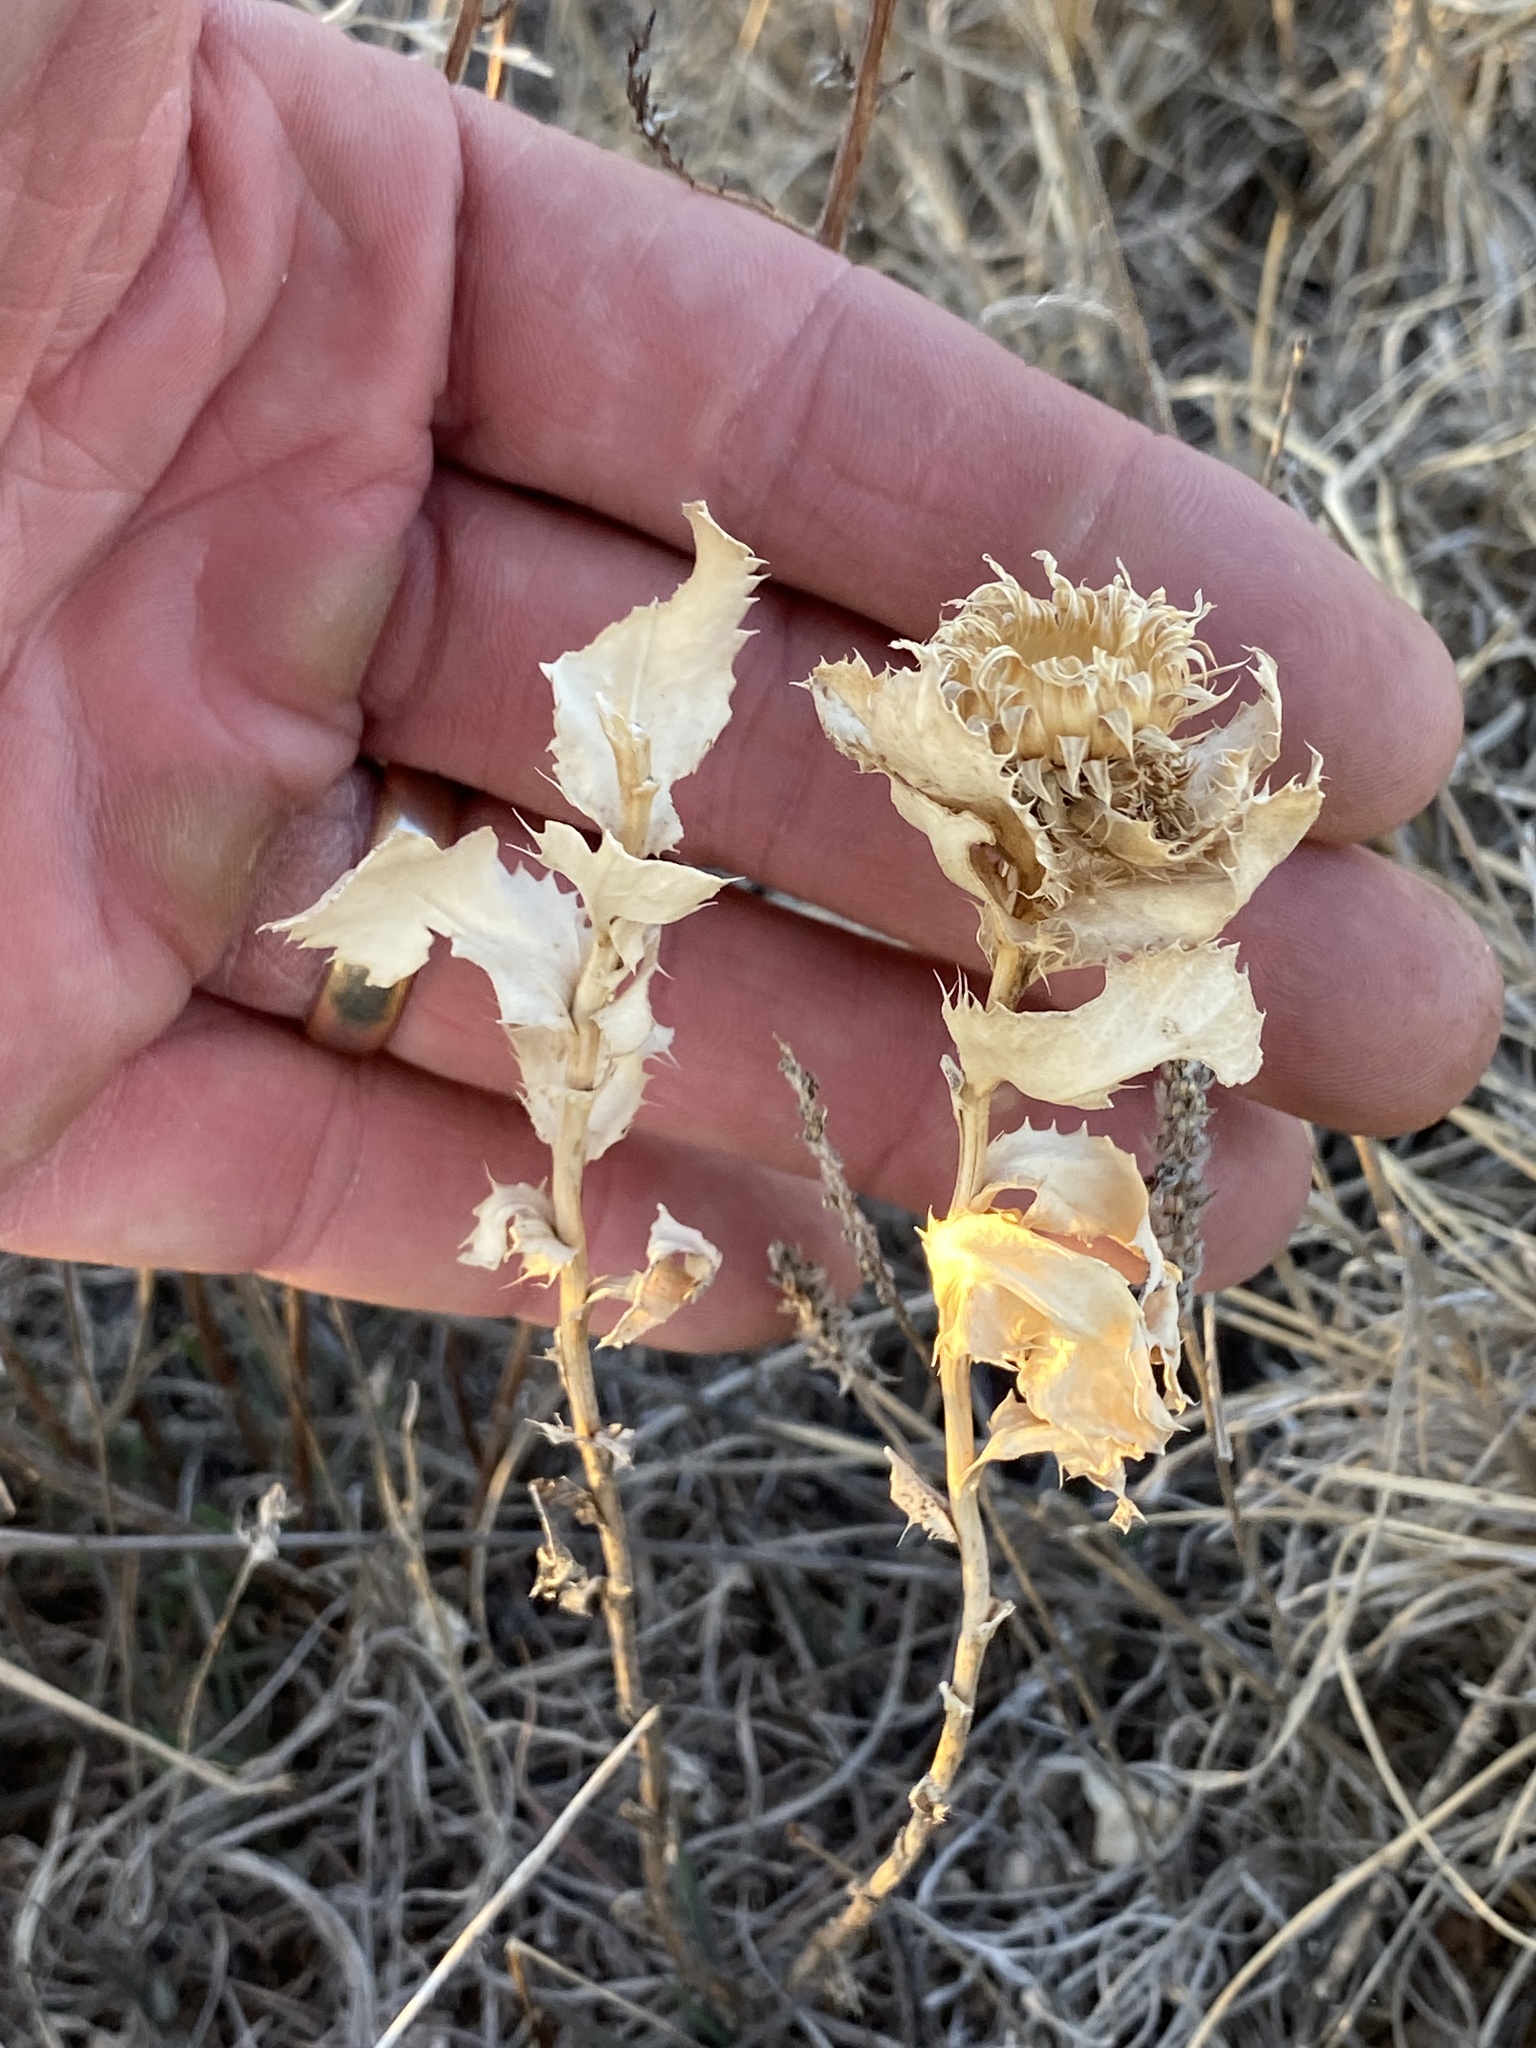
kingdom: Plantae
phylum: Tracheophyta
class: Magnoliopsida
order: Asterales
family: Asteraceae
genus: Grindelia
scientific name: Grindelia ciliata
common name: Goldenweed
